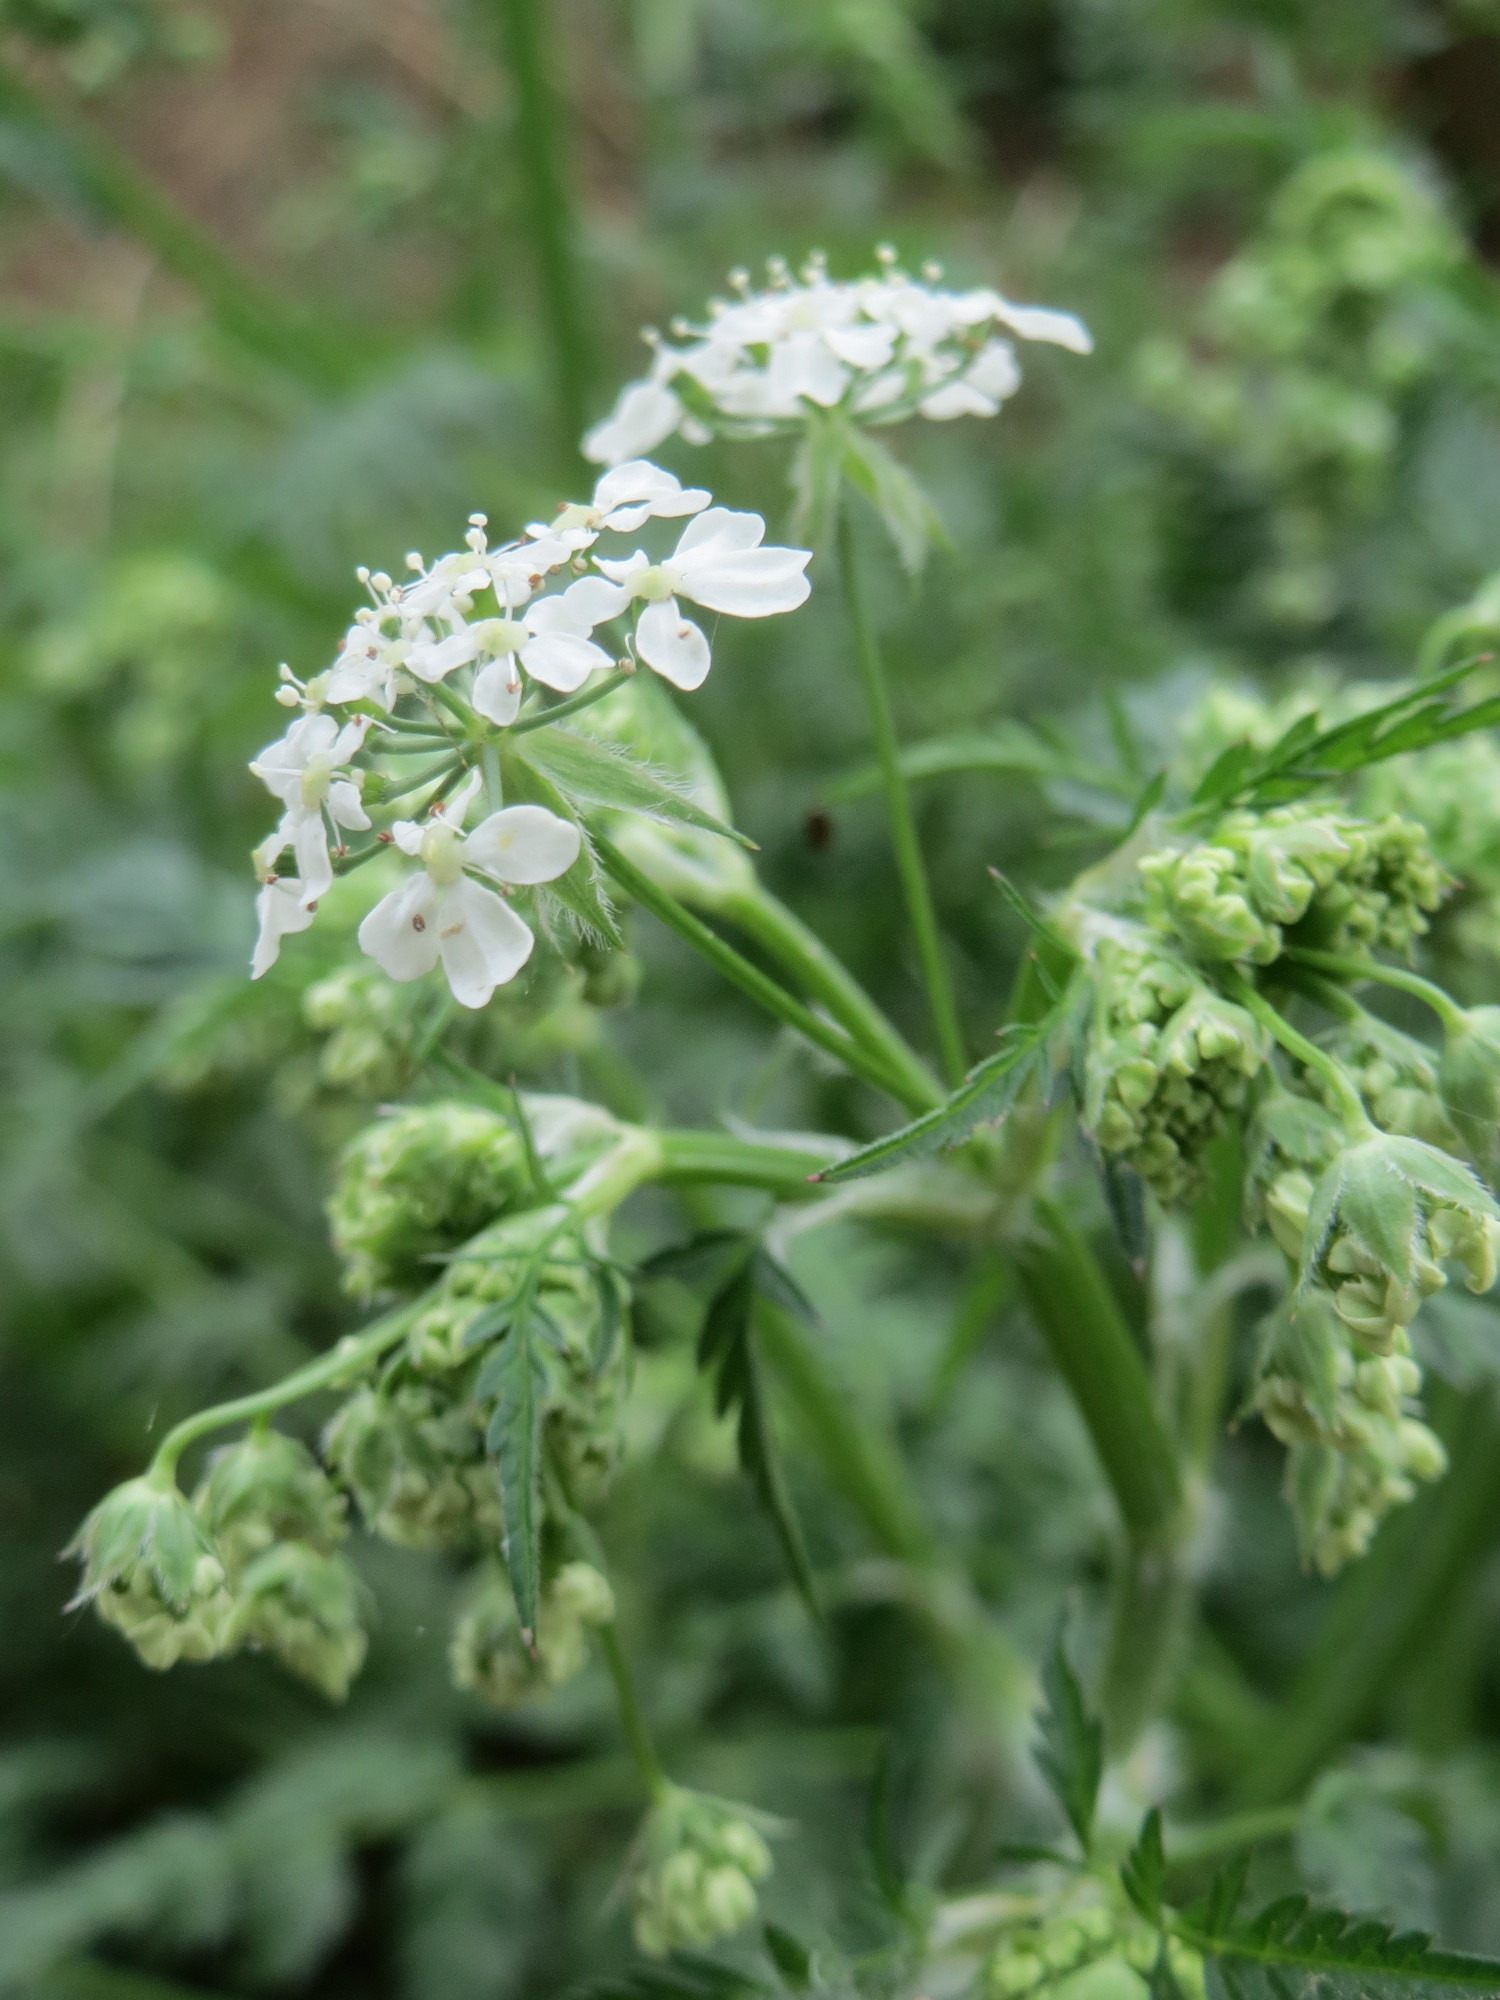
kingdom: Plantae
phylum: Tracheophyta
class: Magnoliopsida
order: Apiales
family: Apiaceae
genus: Anthriscus
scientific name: Anthriscus sylvestris
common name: Cow parsley
